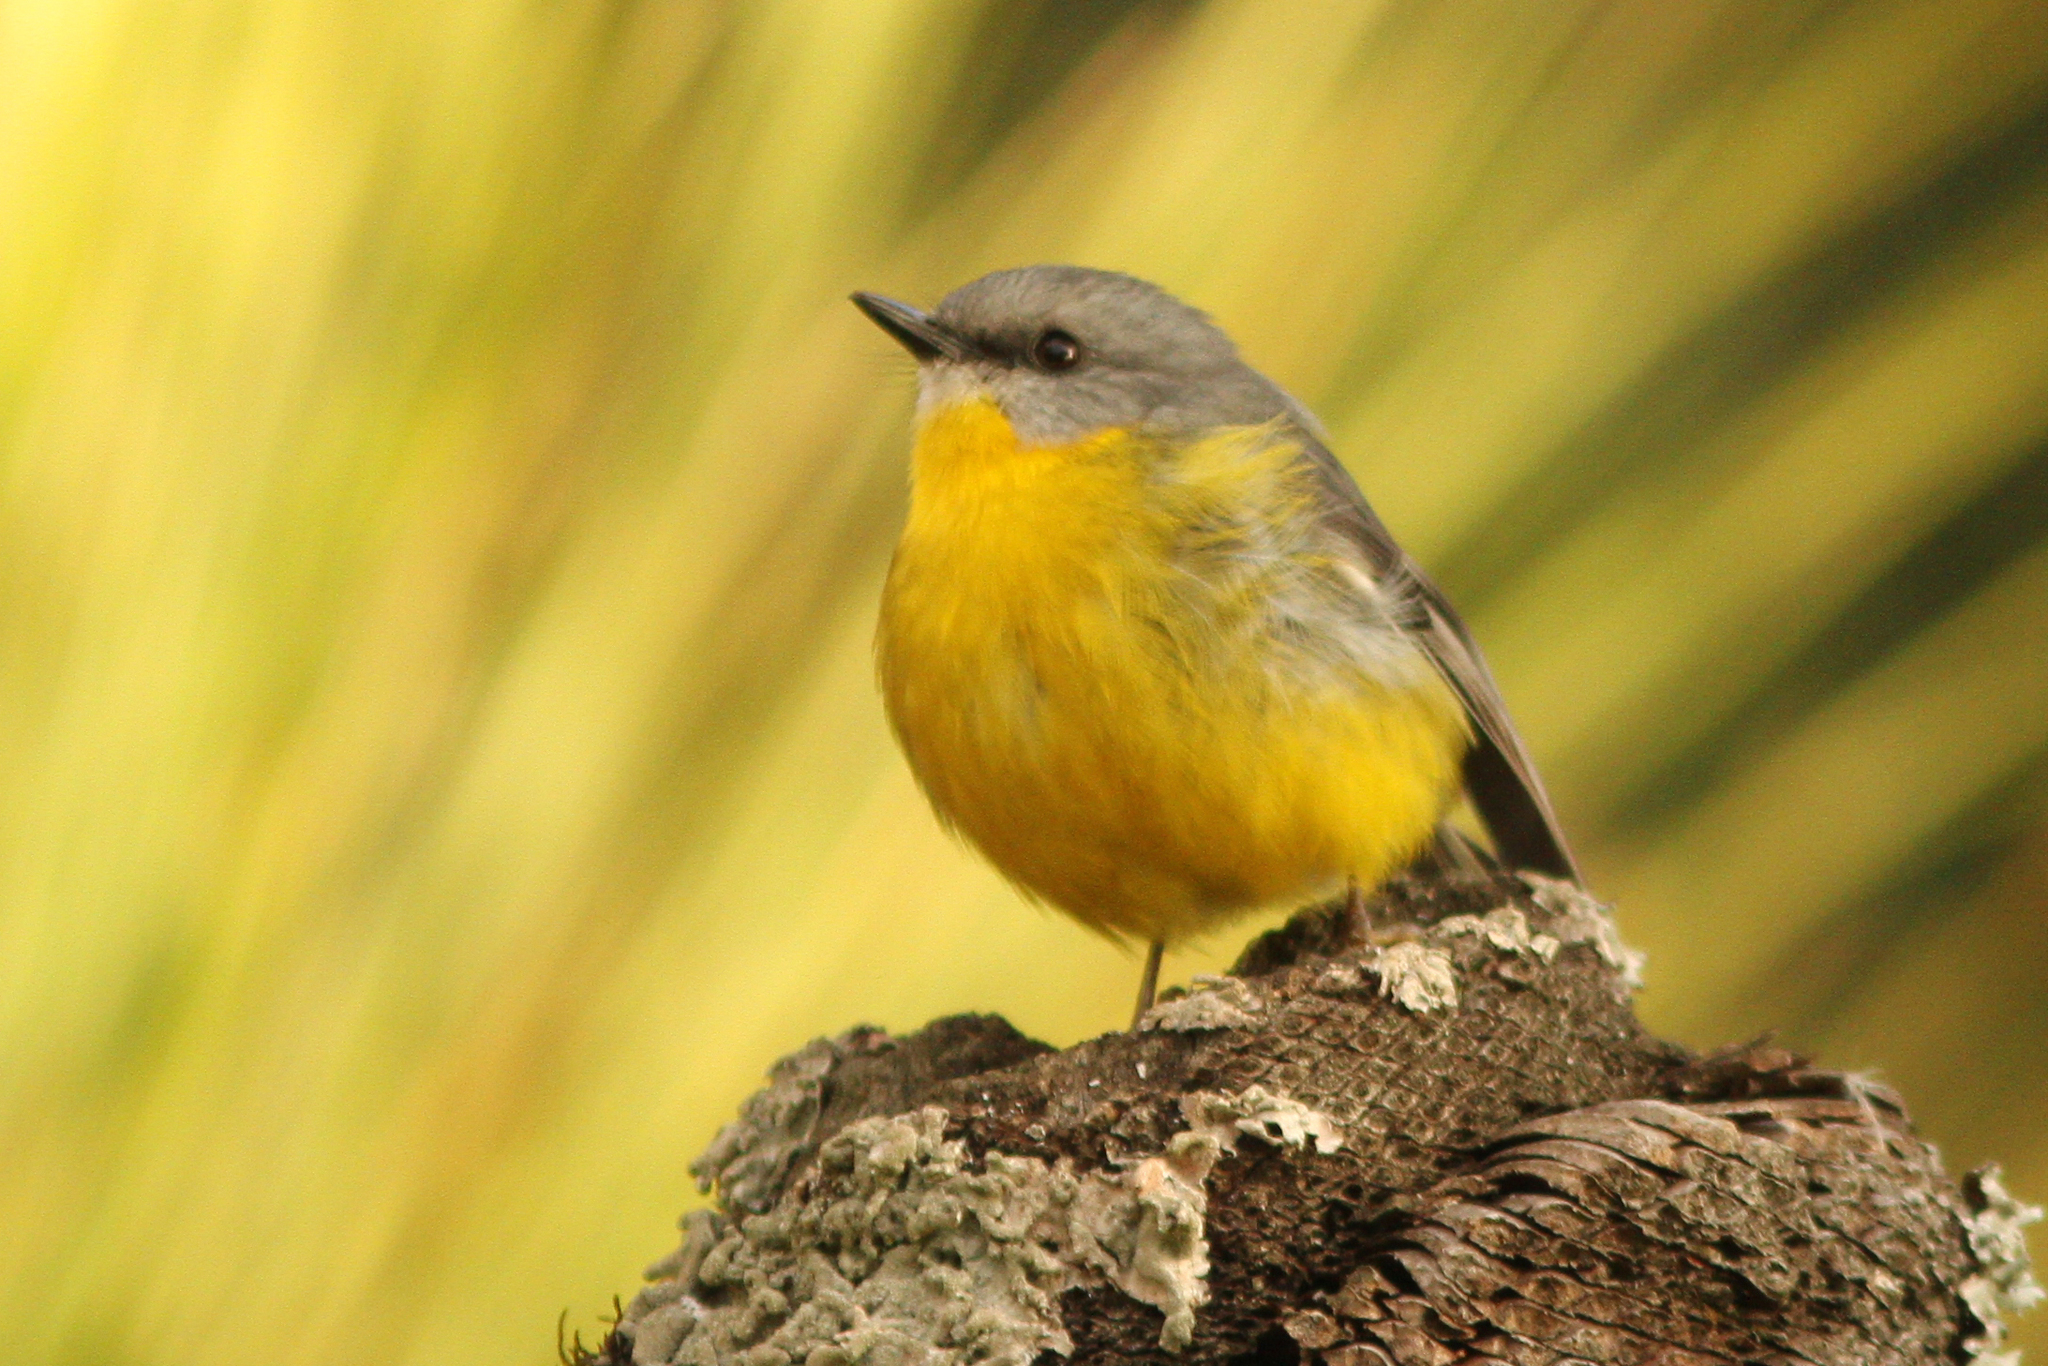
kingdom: Animalia
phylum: Chordata
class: Aves
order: Passeriformes
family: Petroicidae
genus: Eopsaltria
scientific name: Eopsaltria australis
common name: Eastern yellow robin
